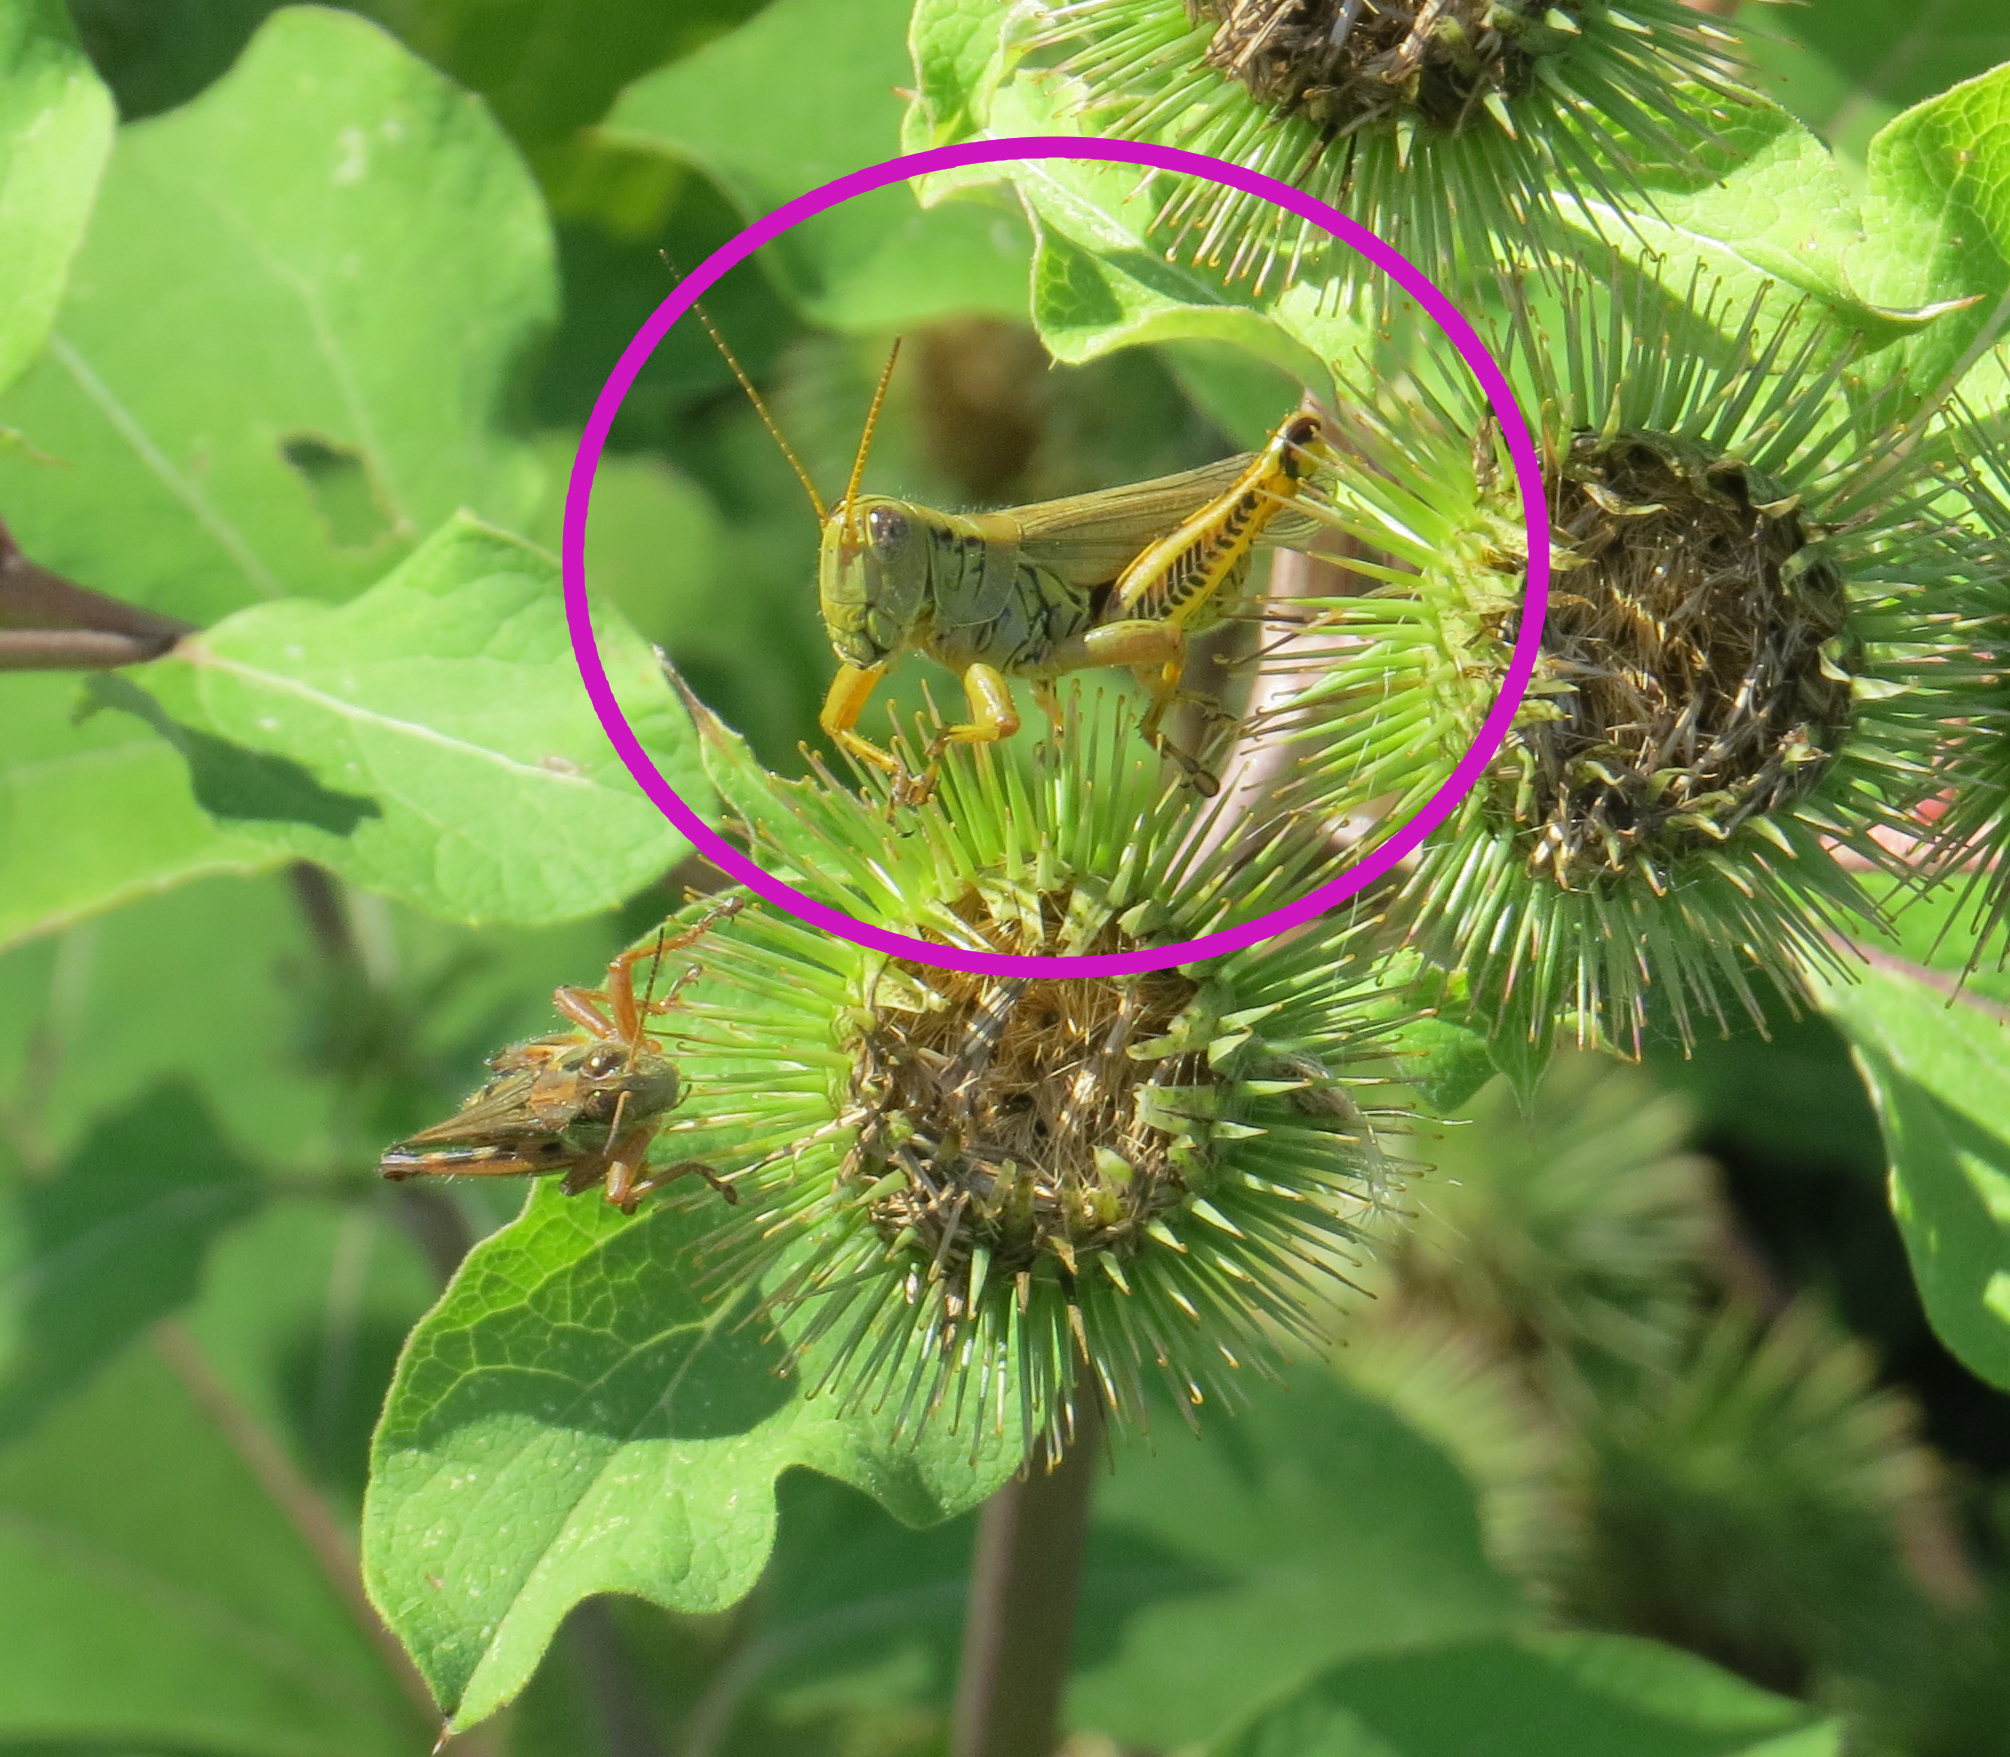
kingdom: Animalia
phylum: Arthropoda
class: Insecta
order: Orthoptera
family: Acrididae
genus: Melanoplus
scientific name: Melanoplus differentialis
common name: Differential grasshopper
